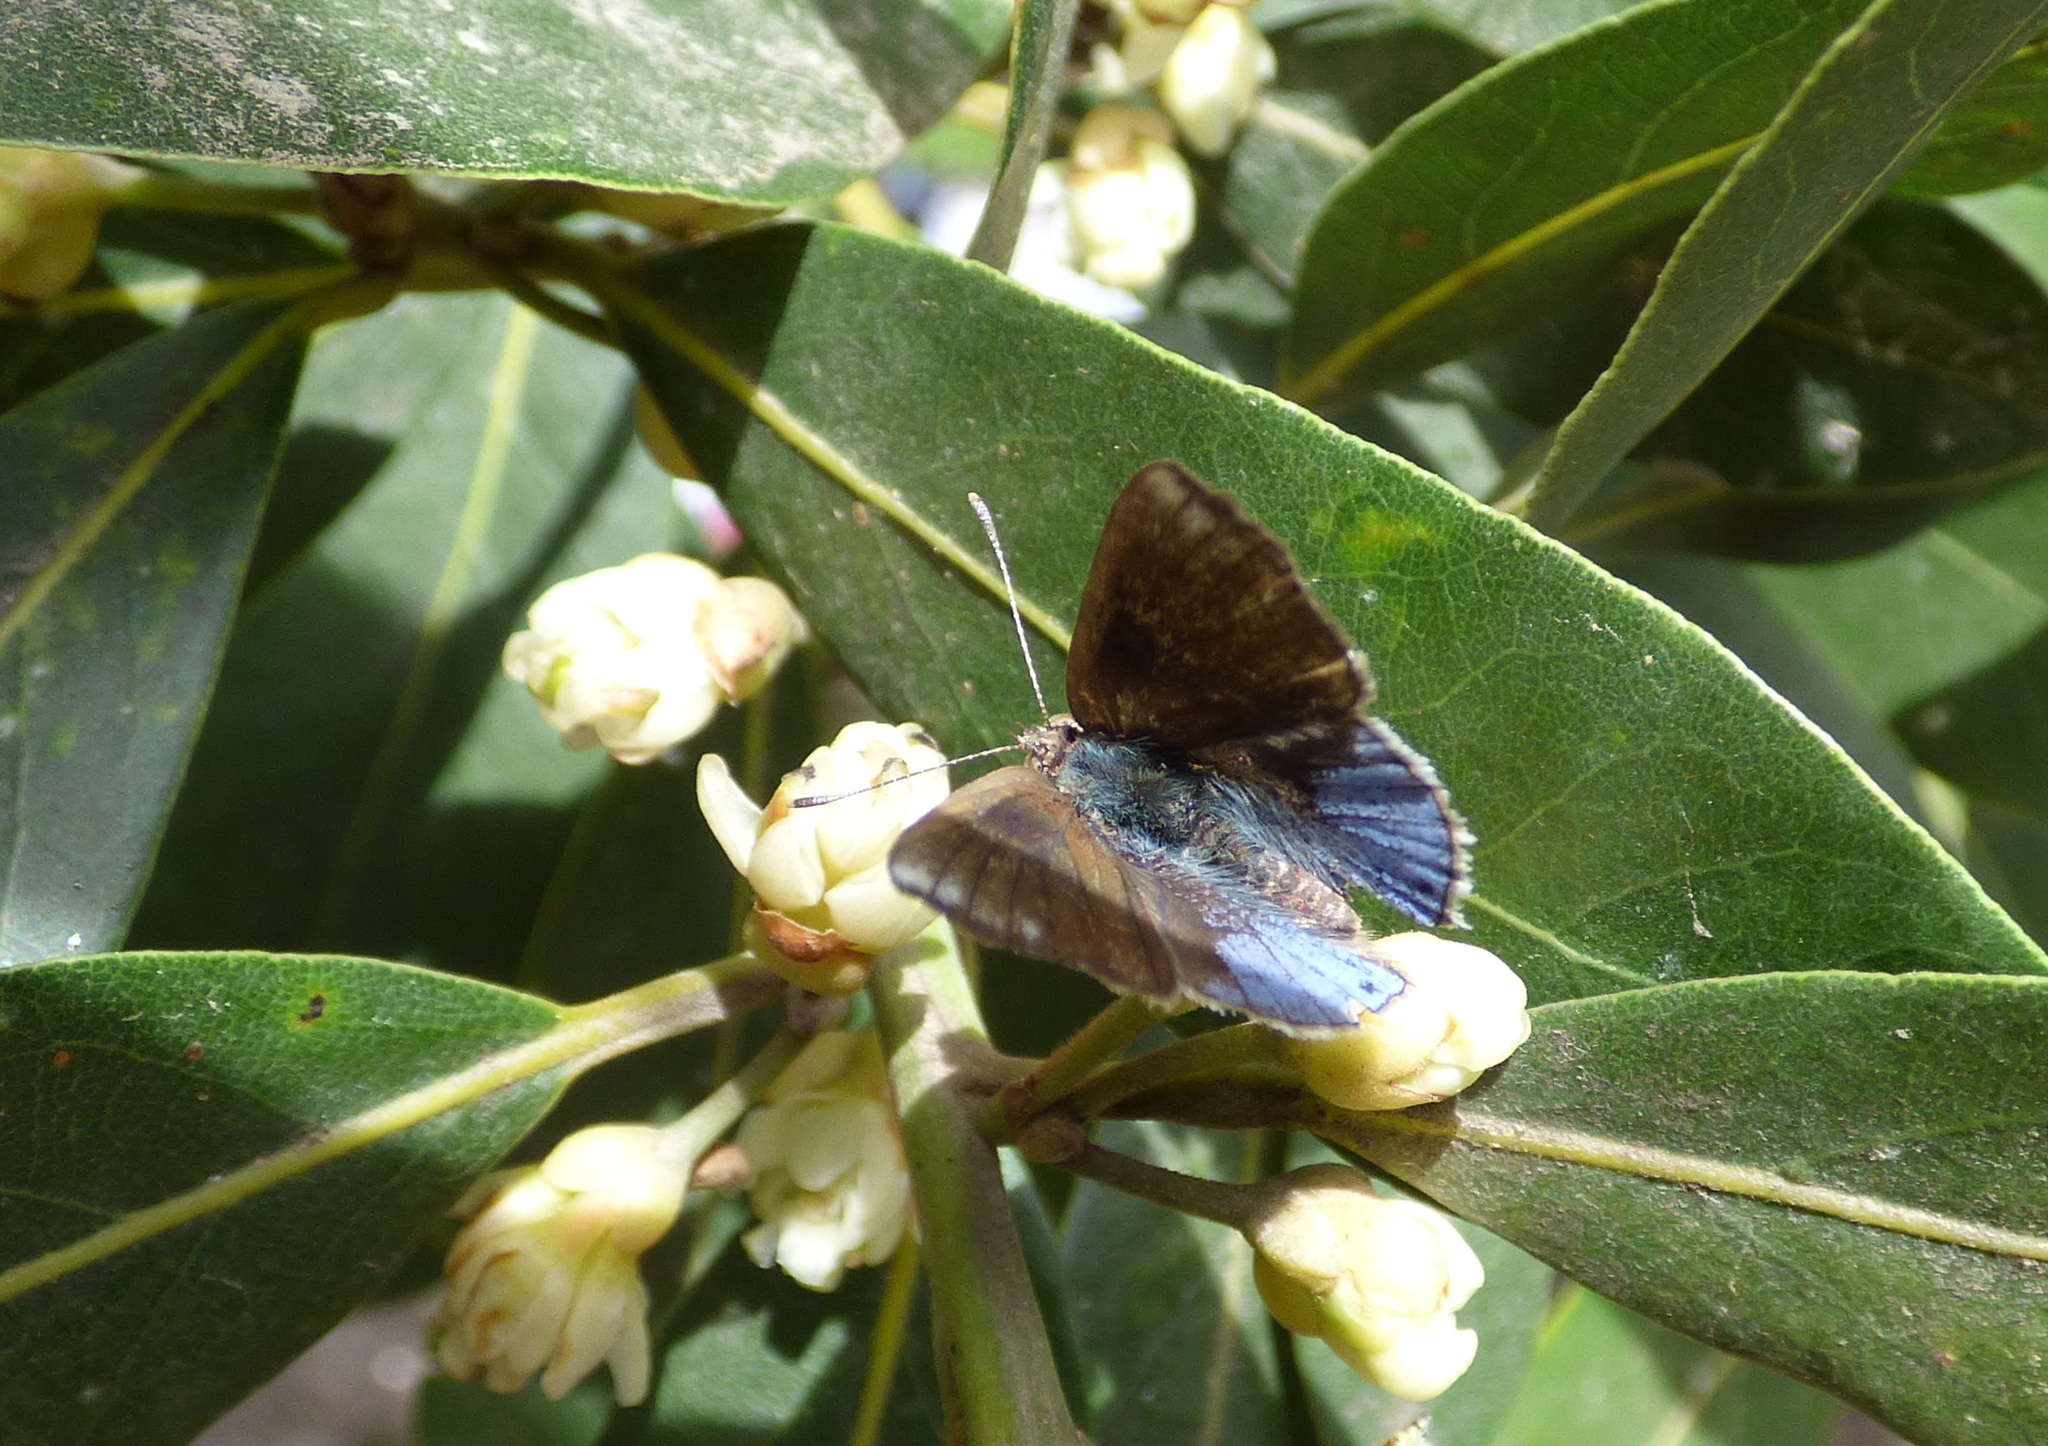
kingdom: Animalia
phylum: Arthropoda
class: Insecta
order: Lepidoptera
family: Lycaenidae
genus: Strymon
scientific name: Strymon bazochii
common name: Lantana scrub-hairstreak
